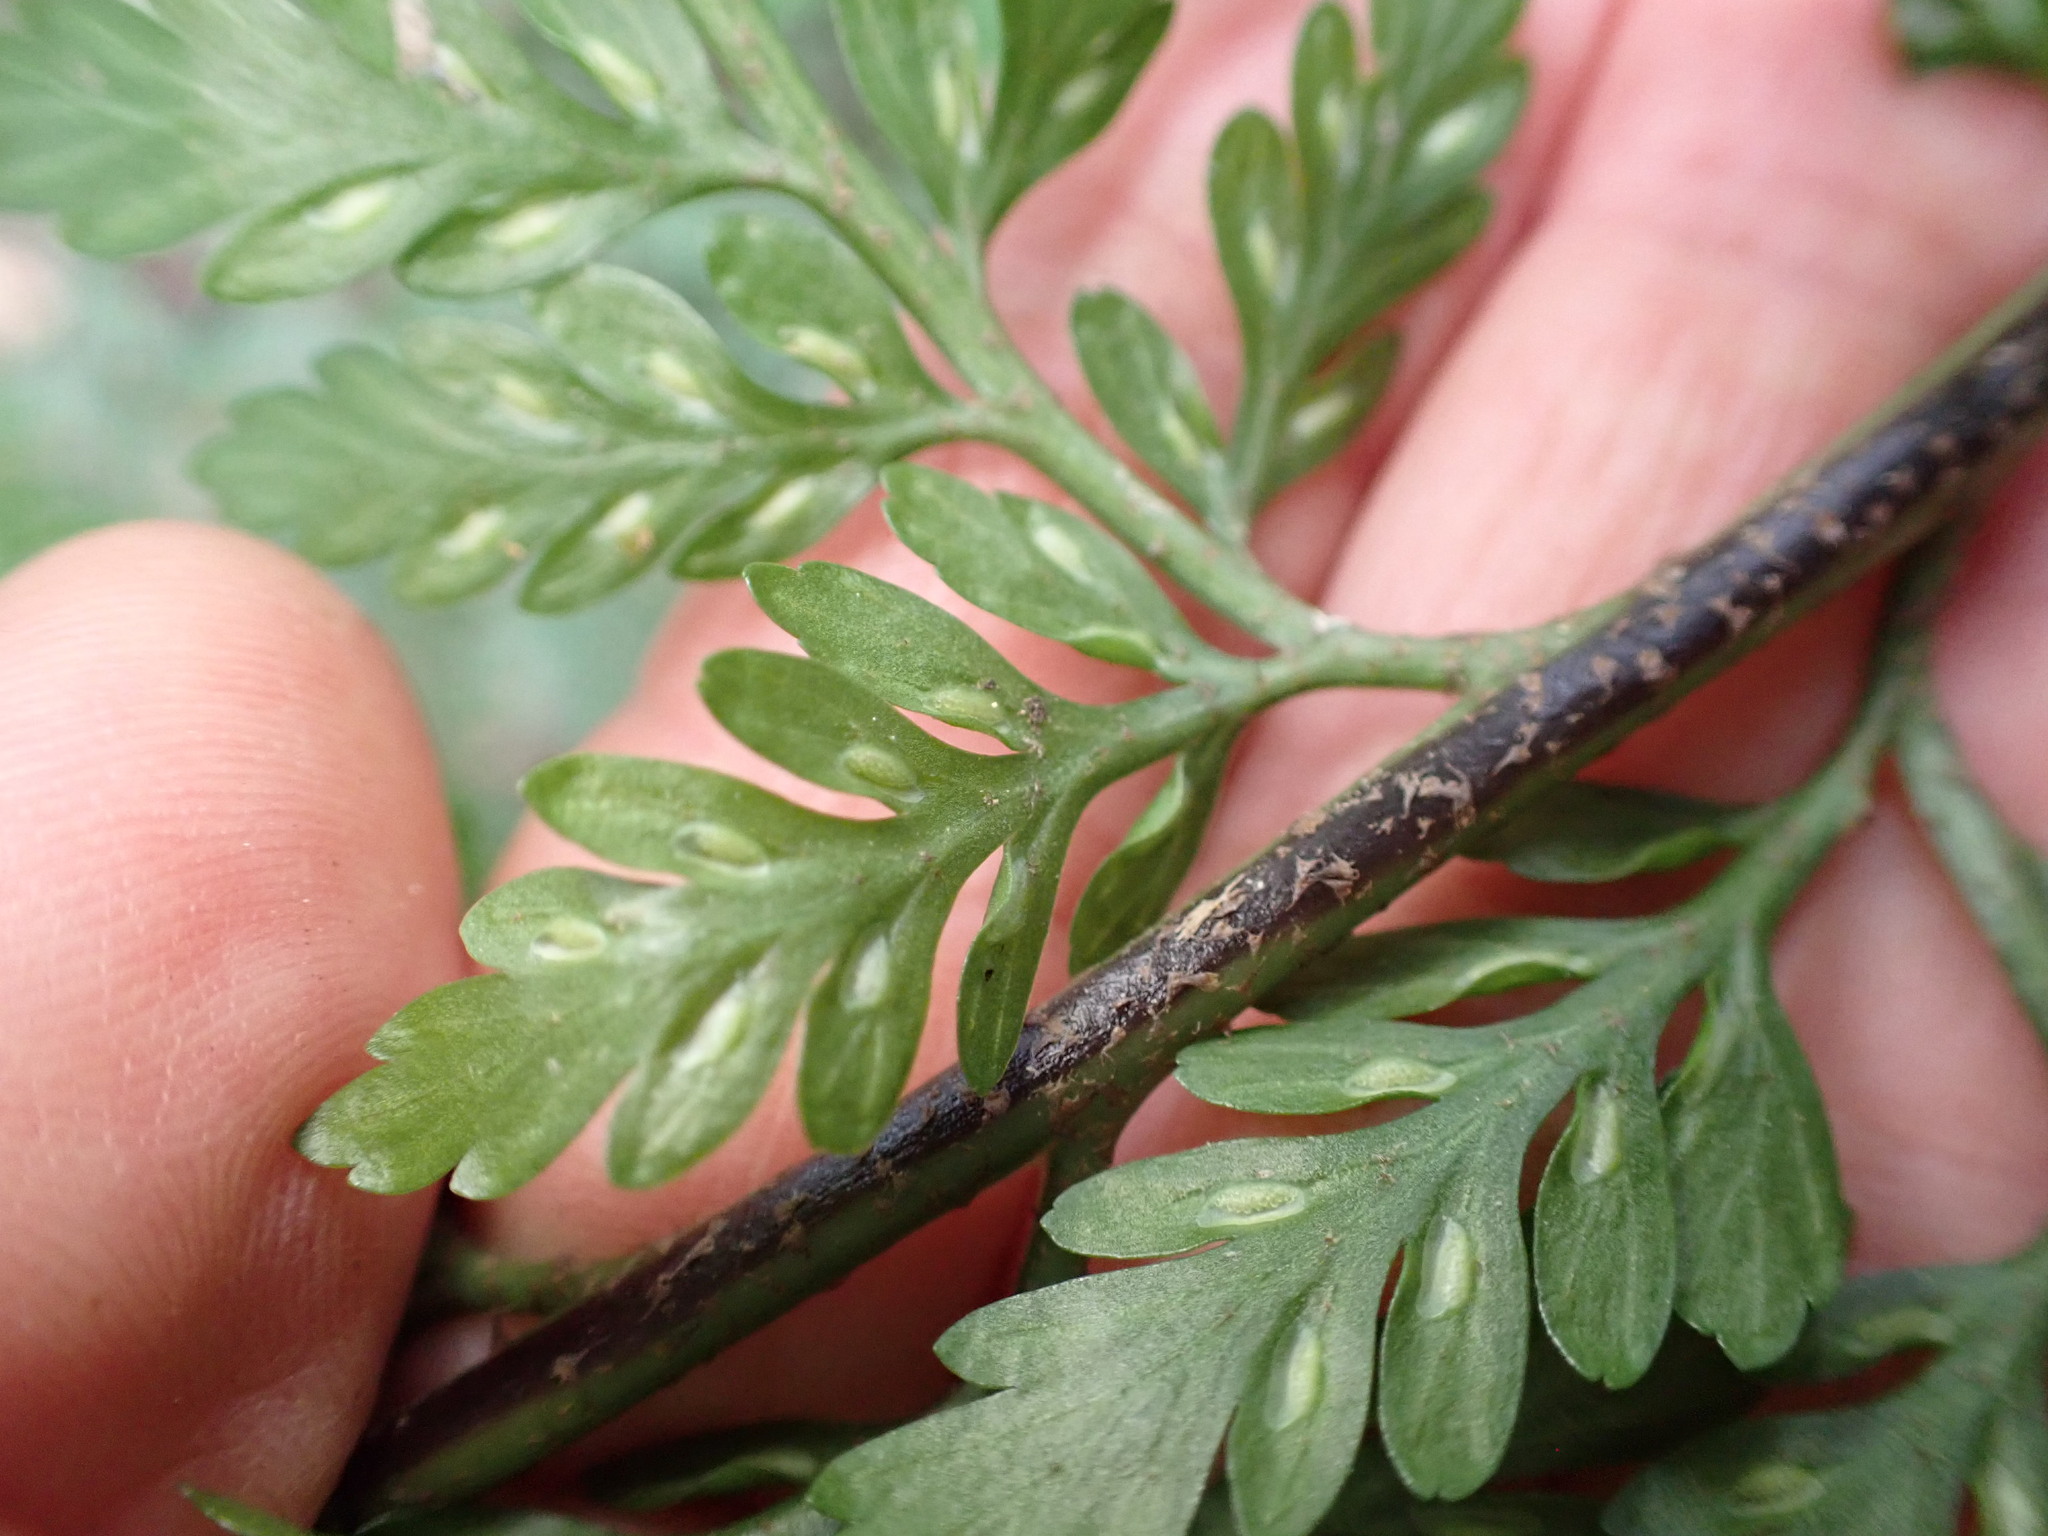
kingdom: Plantae
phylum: Tracheophyta
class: Polypodiopsida
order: Polypodiales
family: Aspleniaceae
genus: Asplenium
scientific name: Asplenium
